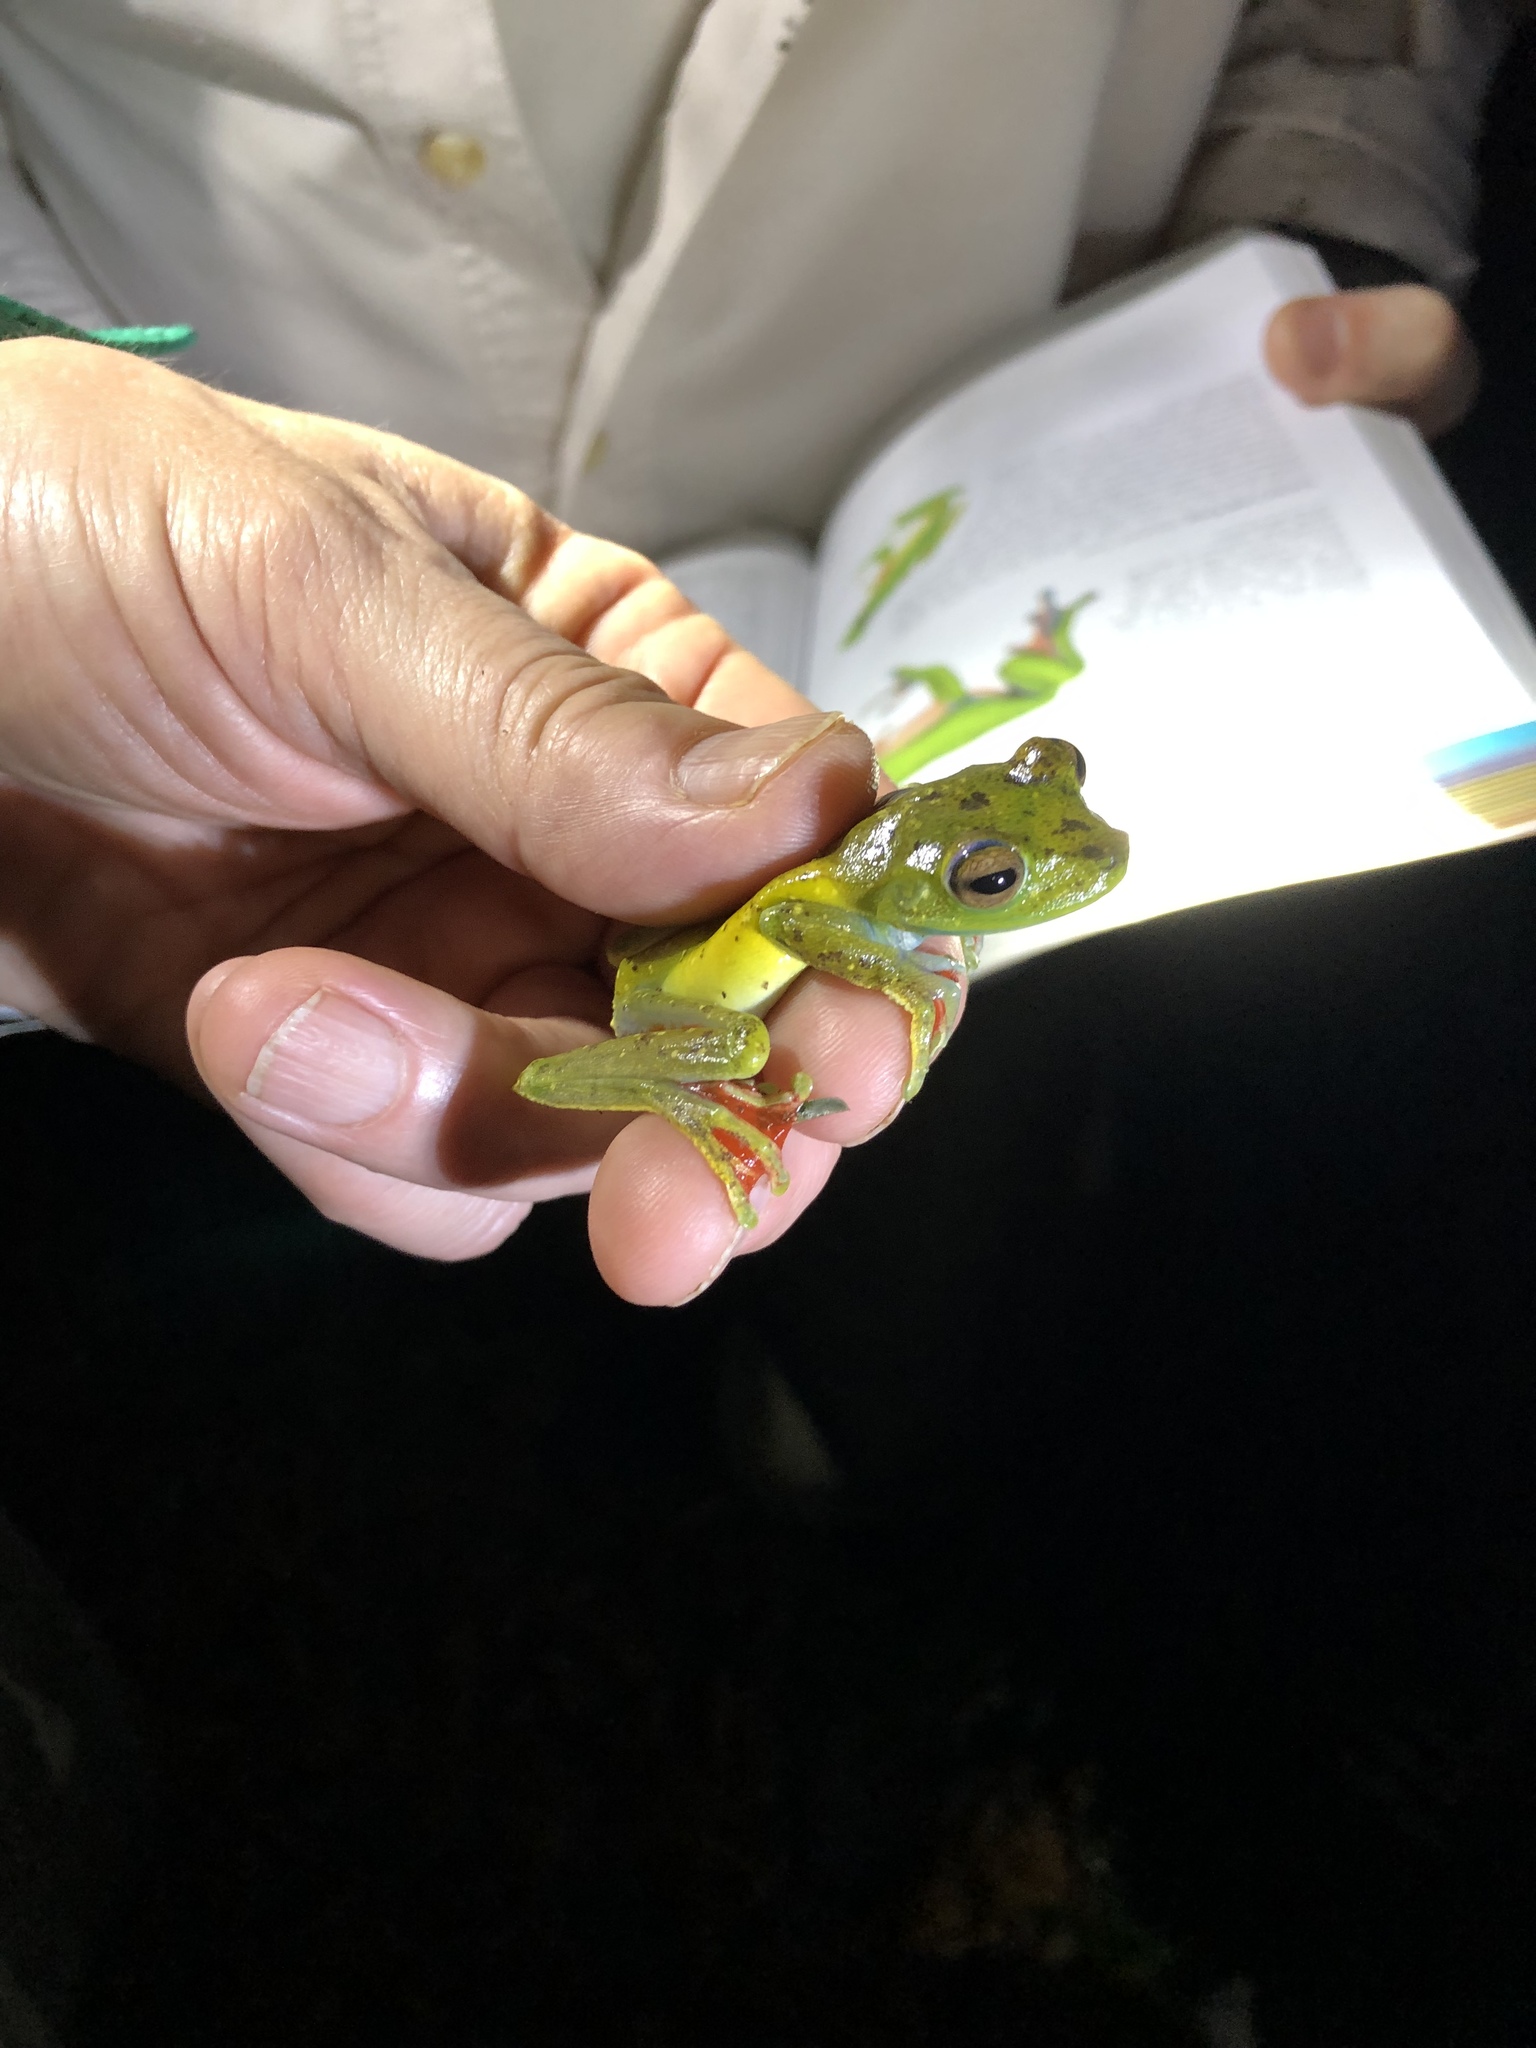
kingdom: Animalia
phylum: Chordata
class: Amphibia
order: Anura
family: Hylidae
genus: Boana
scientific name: Boana rufitela
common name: Canal zone treefrog
